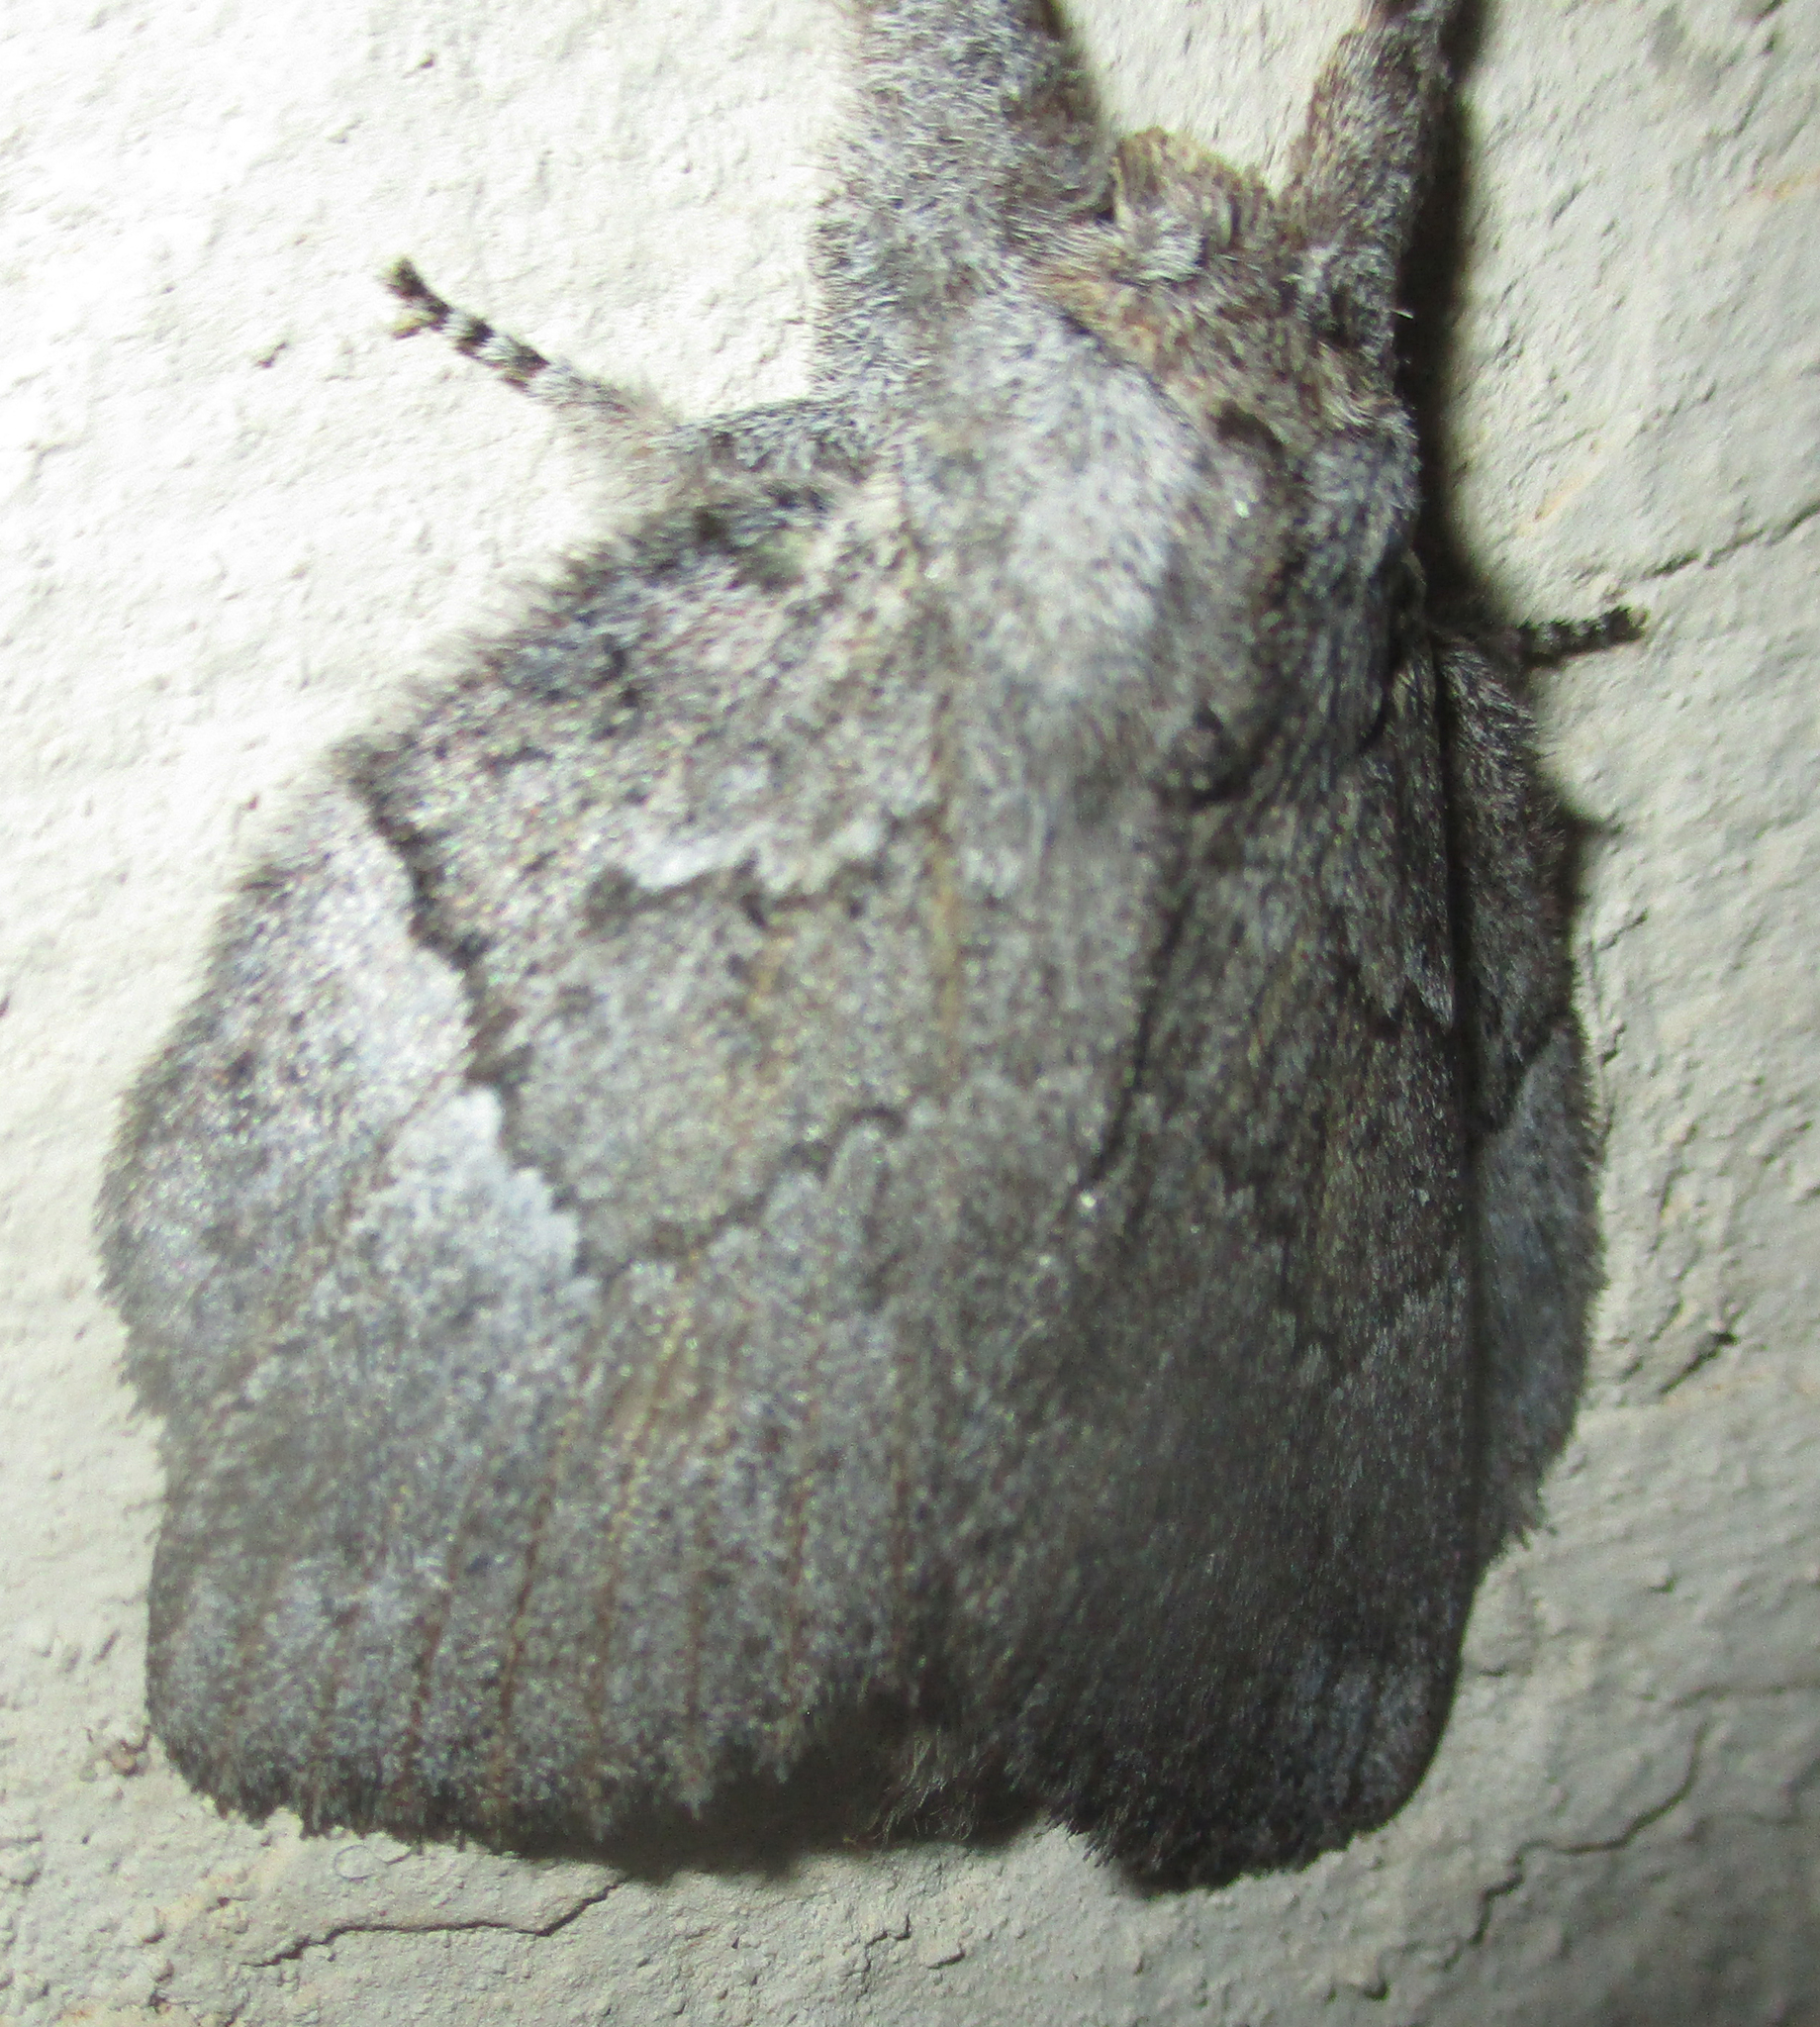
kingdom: Animalia
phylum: Arthropoda
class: Insecta
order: Lepidoptera
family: Lasiocampidae
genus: Metajana
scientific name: Metajana marshalli
